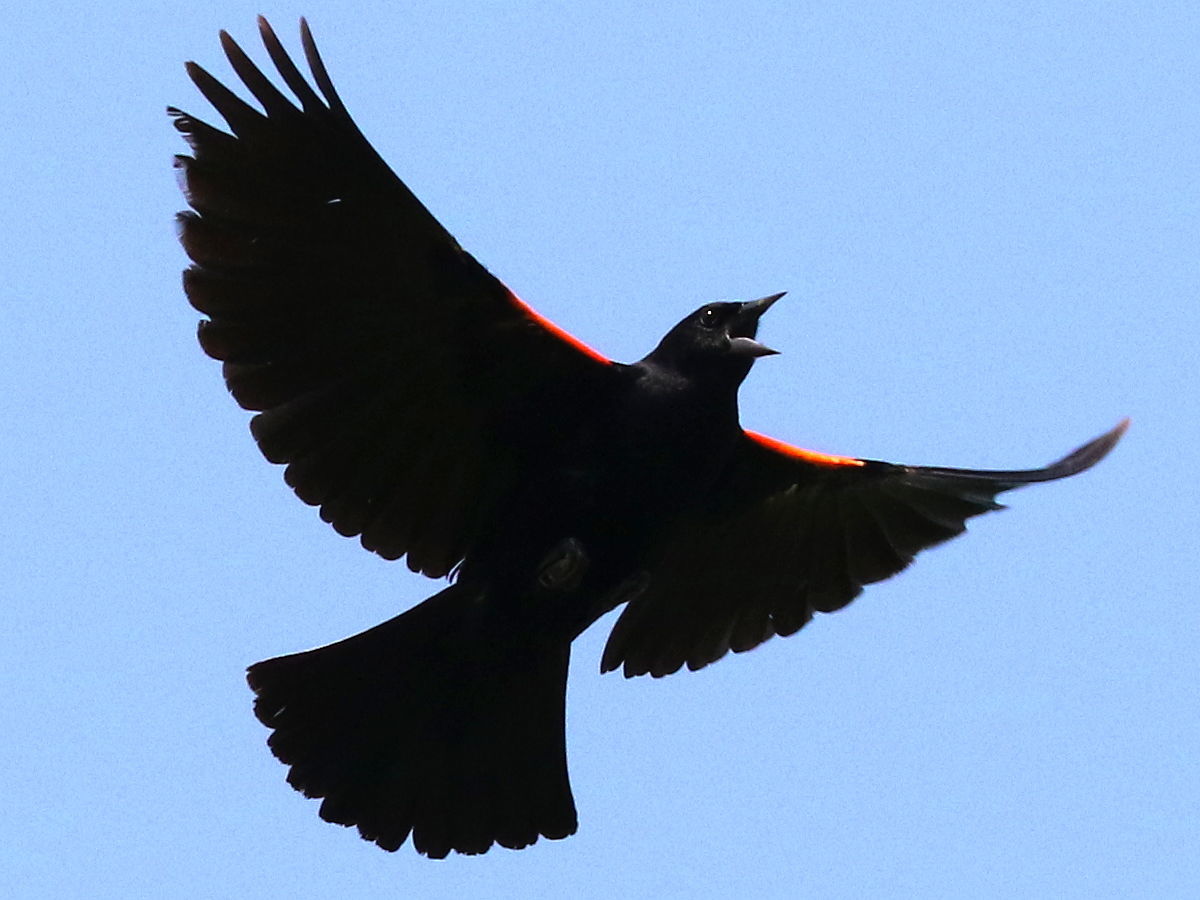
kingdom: Animalia
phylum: Chordata
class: Aves
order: Passeriformes
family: Icteridae
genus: Agelaius
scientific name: Agelaius phoeniceus
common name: Red-winged blackbird
